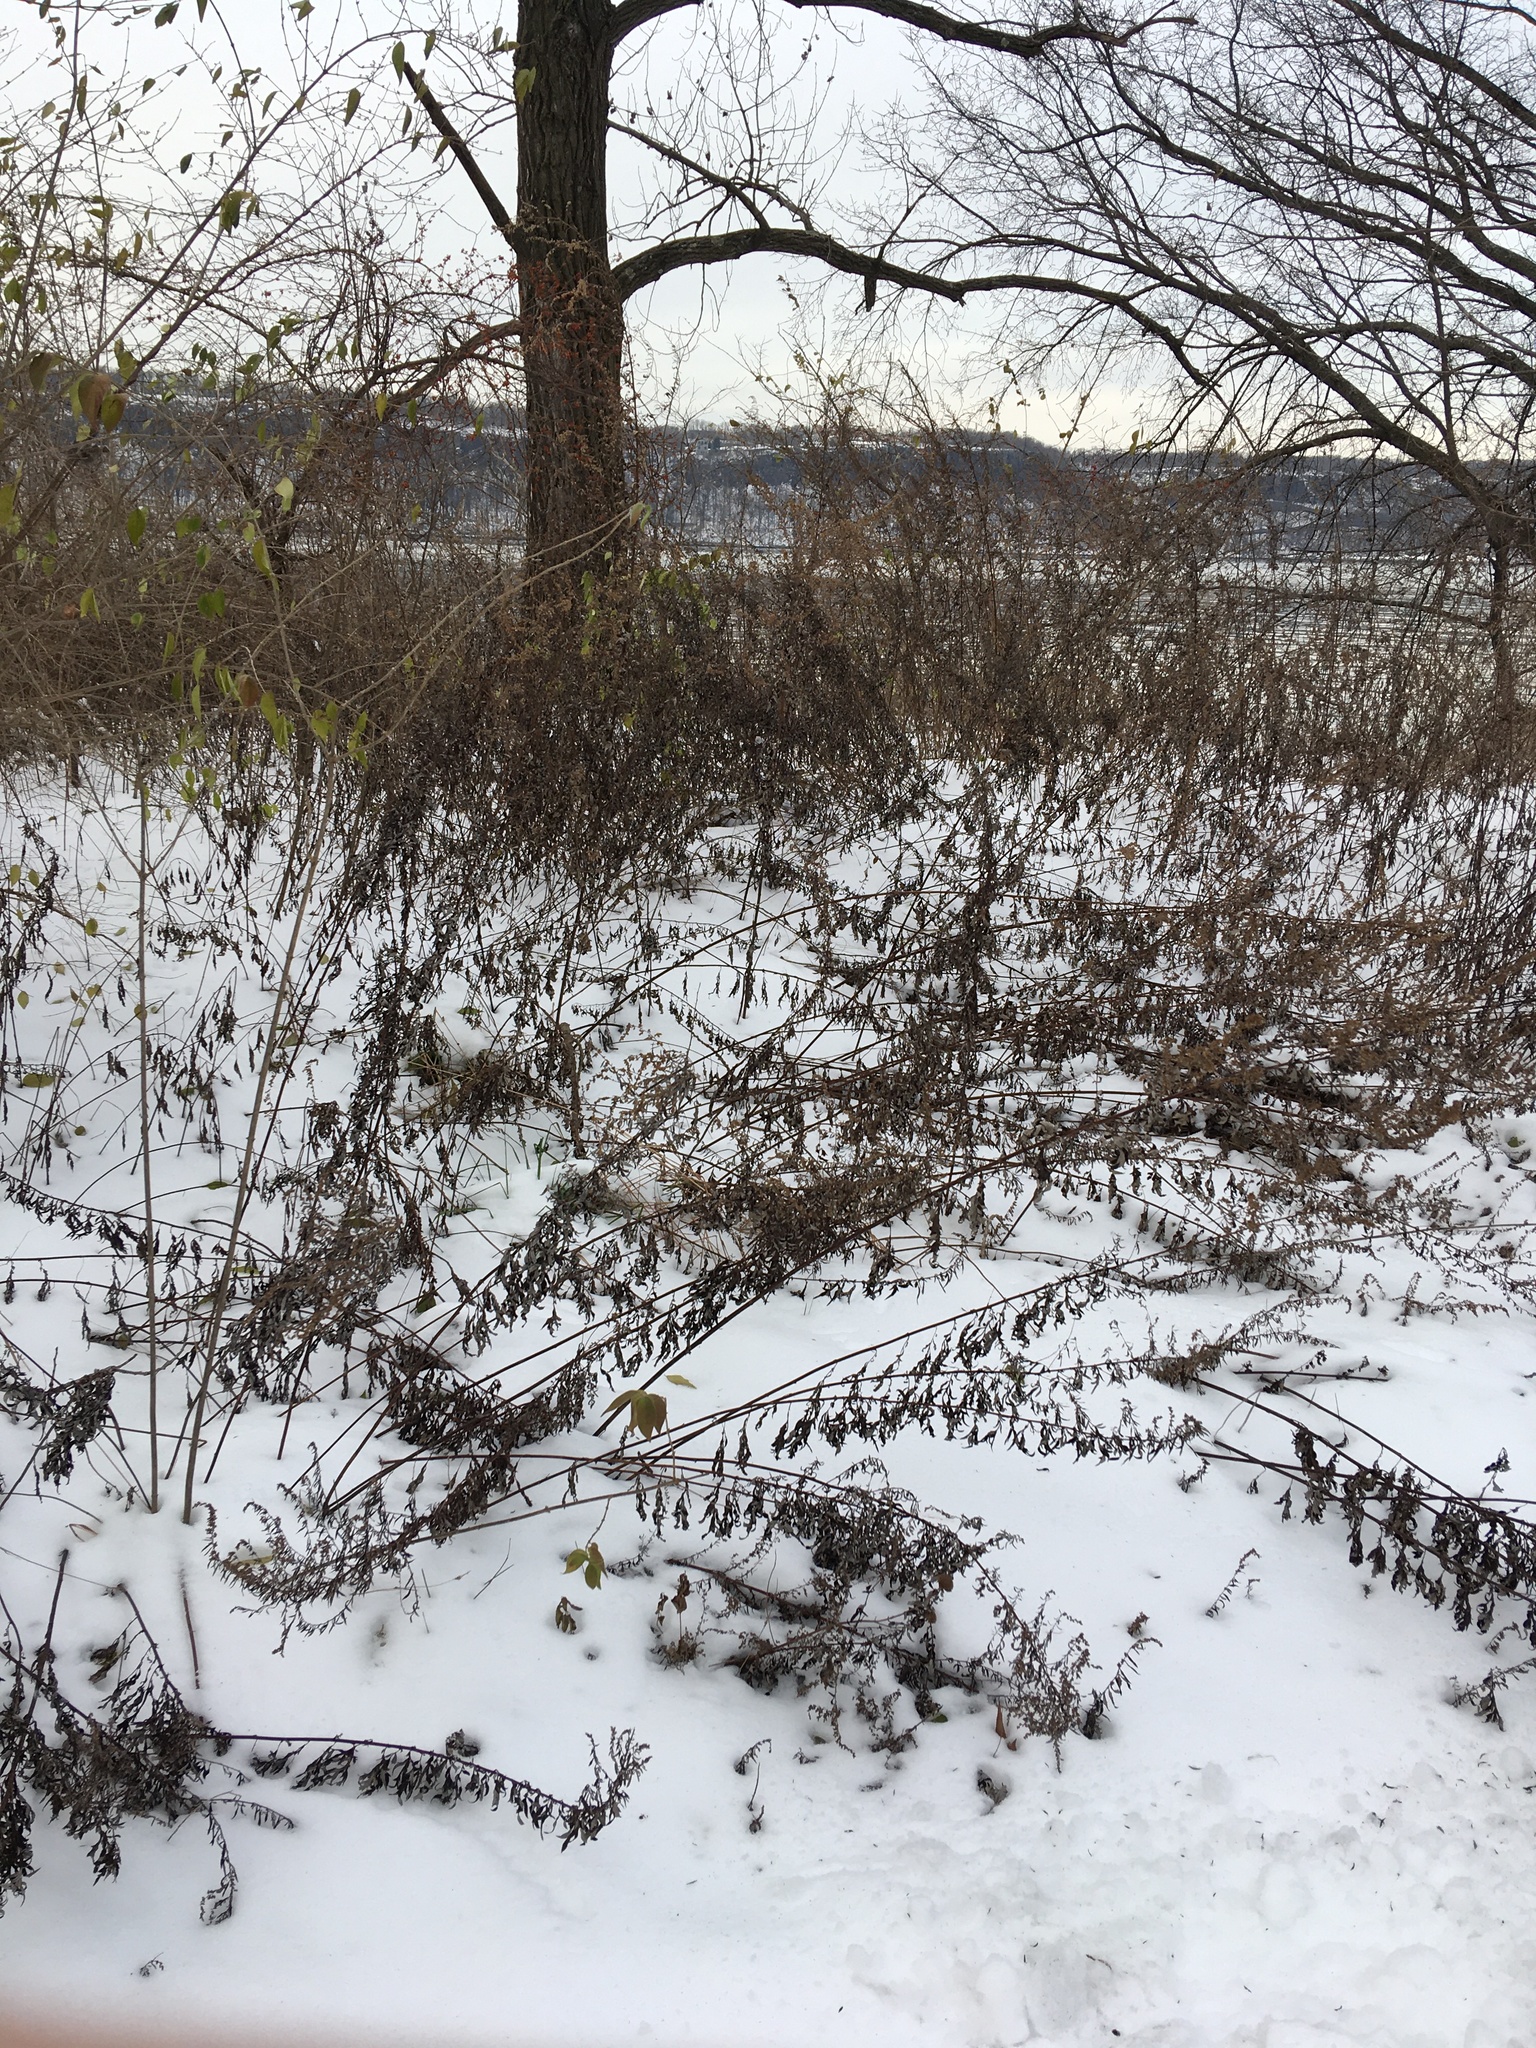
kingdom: Plantae
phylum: Tracheophyta
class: Magnoliopsida
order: Asterales
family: Asteraceae
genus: Artemisia
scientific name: Artemisia vulgaris
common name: Mugwort
